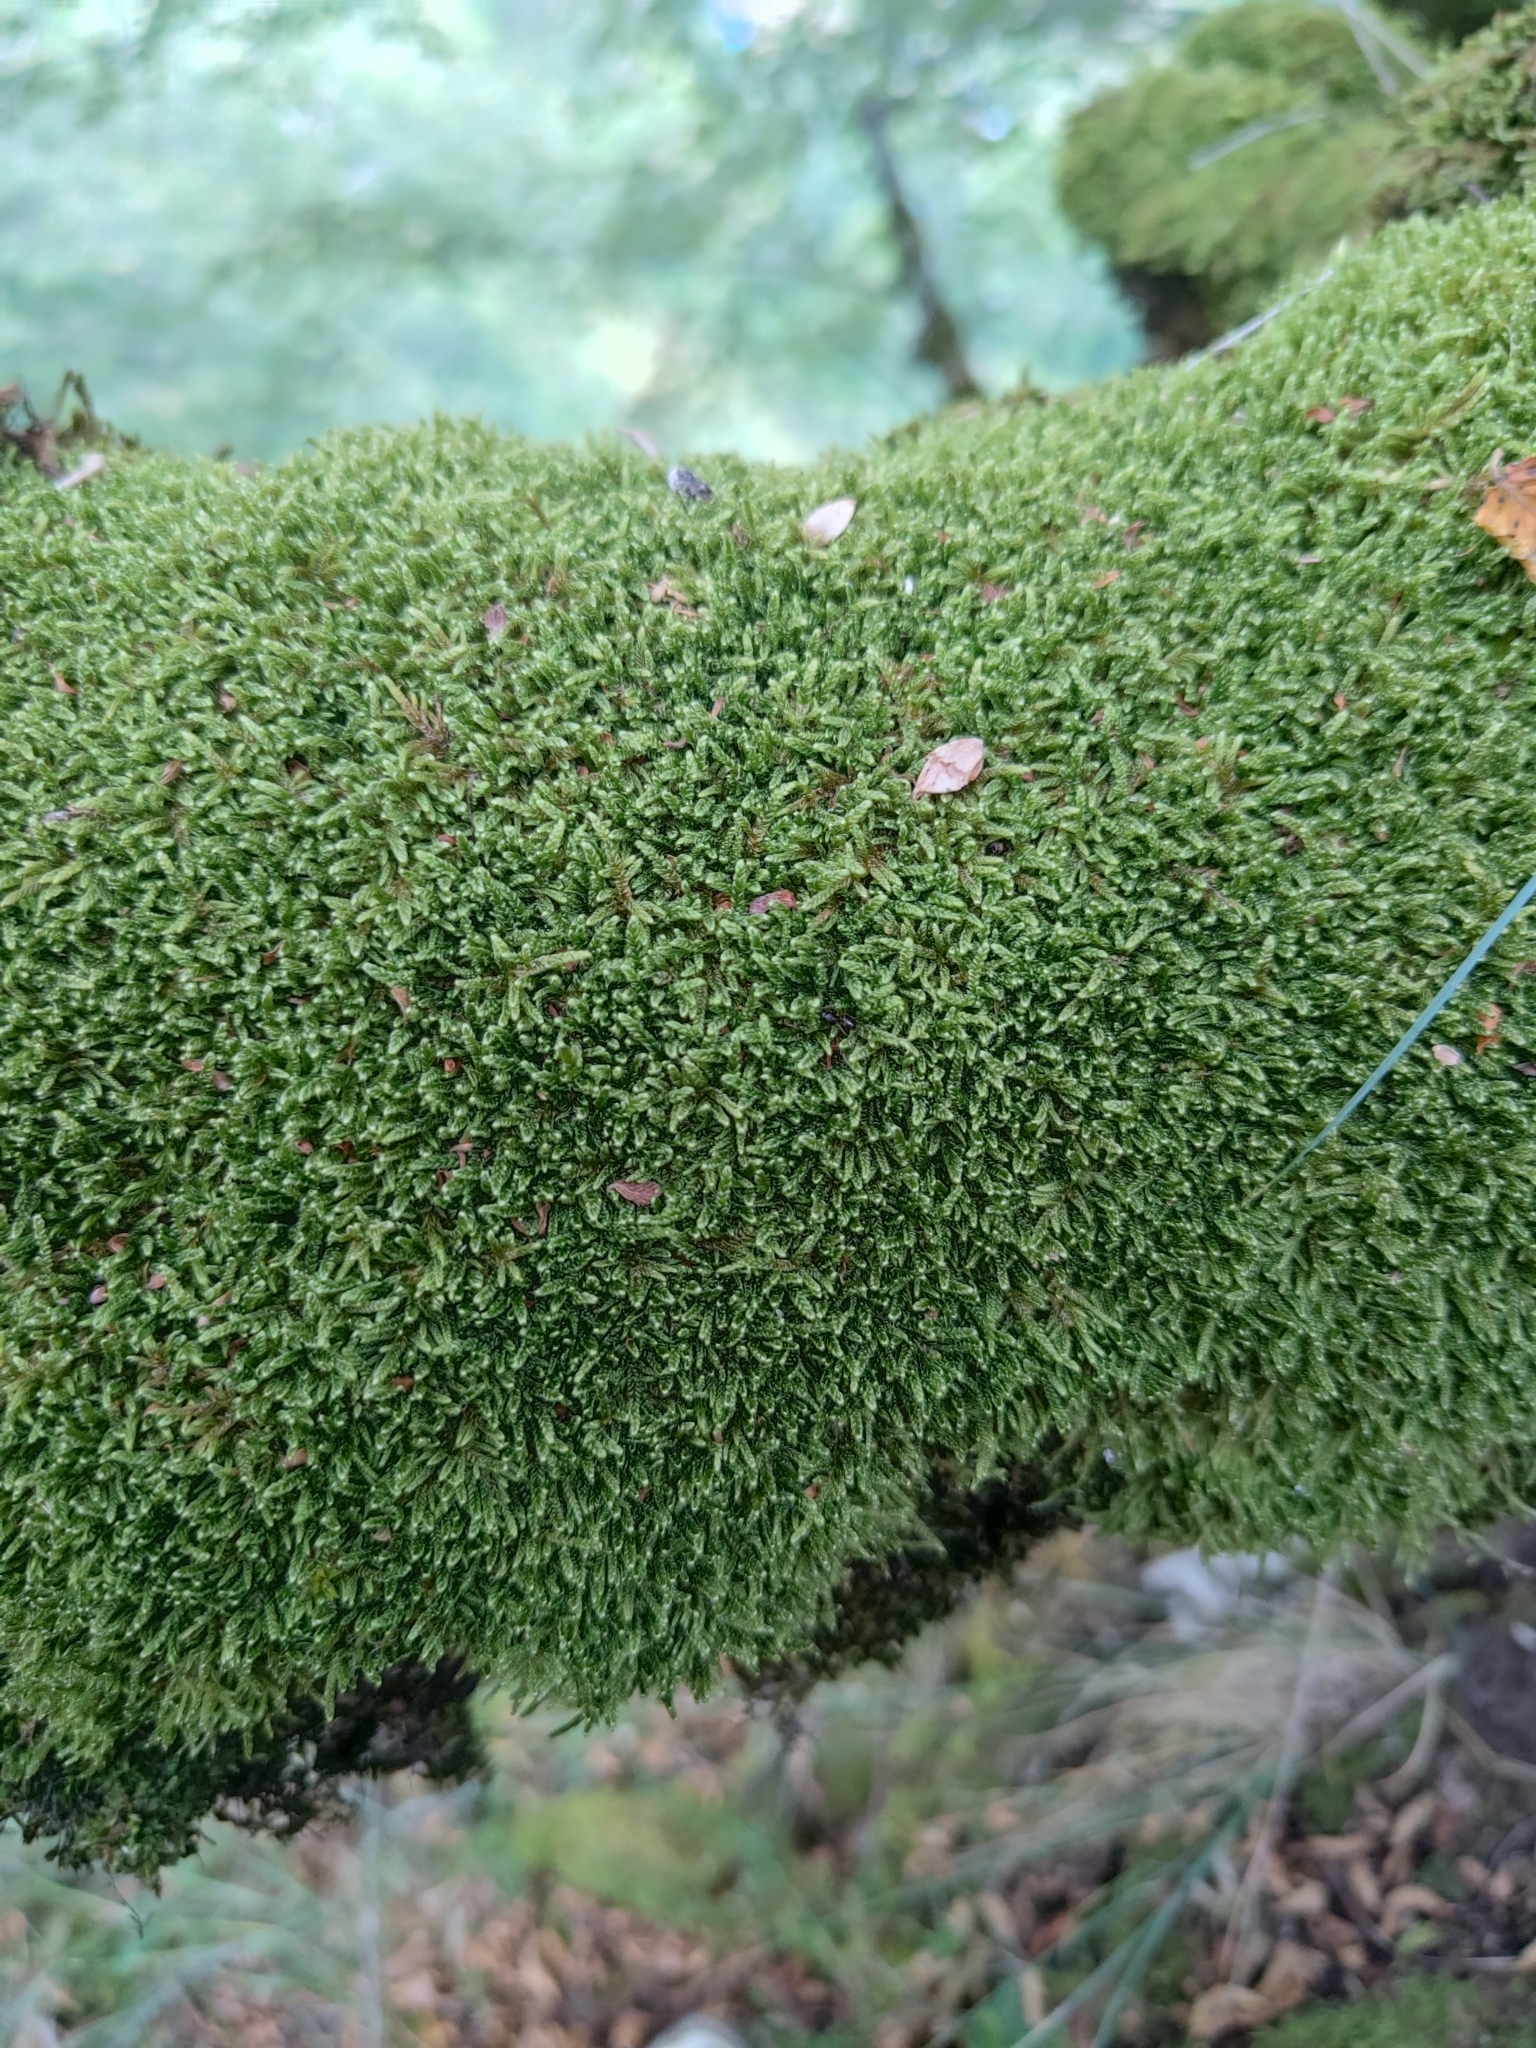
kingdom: Plantae
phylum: Bryophyta
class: Bryopsida
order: Hypnales
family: Hypnaceae
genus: Hypnum
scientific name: Hypnum cupressiforme
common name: Cypress-leaved plait-moss
